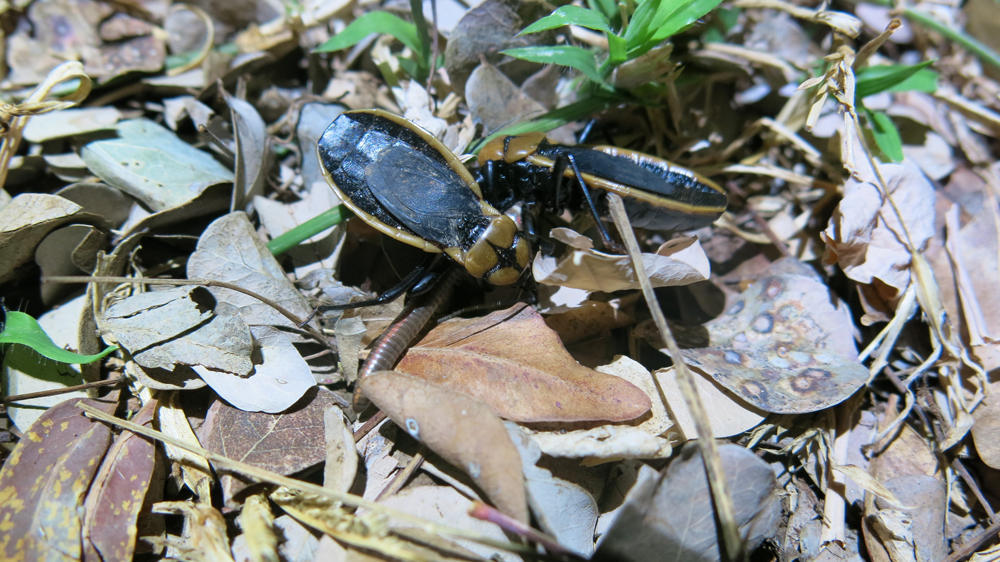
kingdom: Animalia
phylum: Arthropoda
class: Insecta
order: Hemiptera
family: Reduviidae
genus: Ectrichodia
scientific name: Ectrichodia crux
